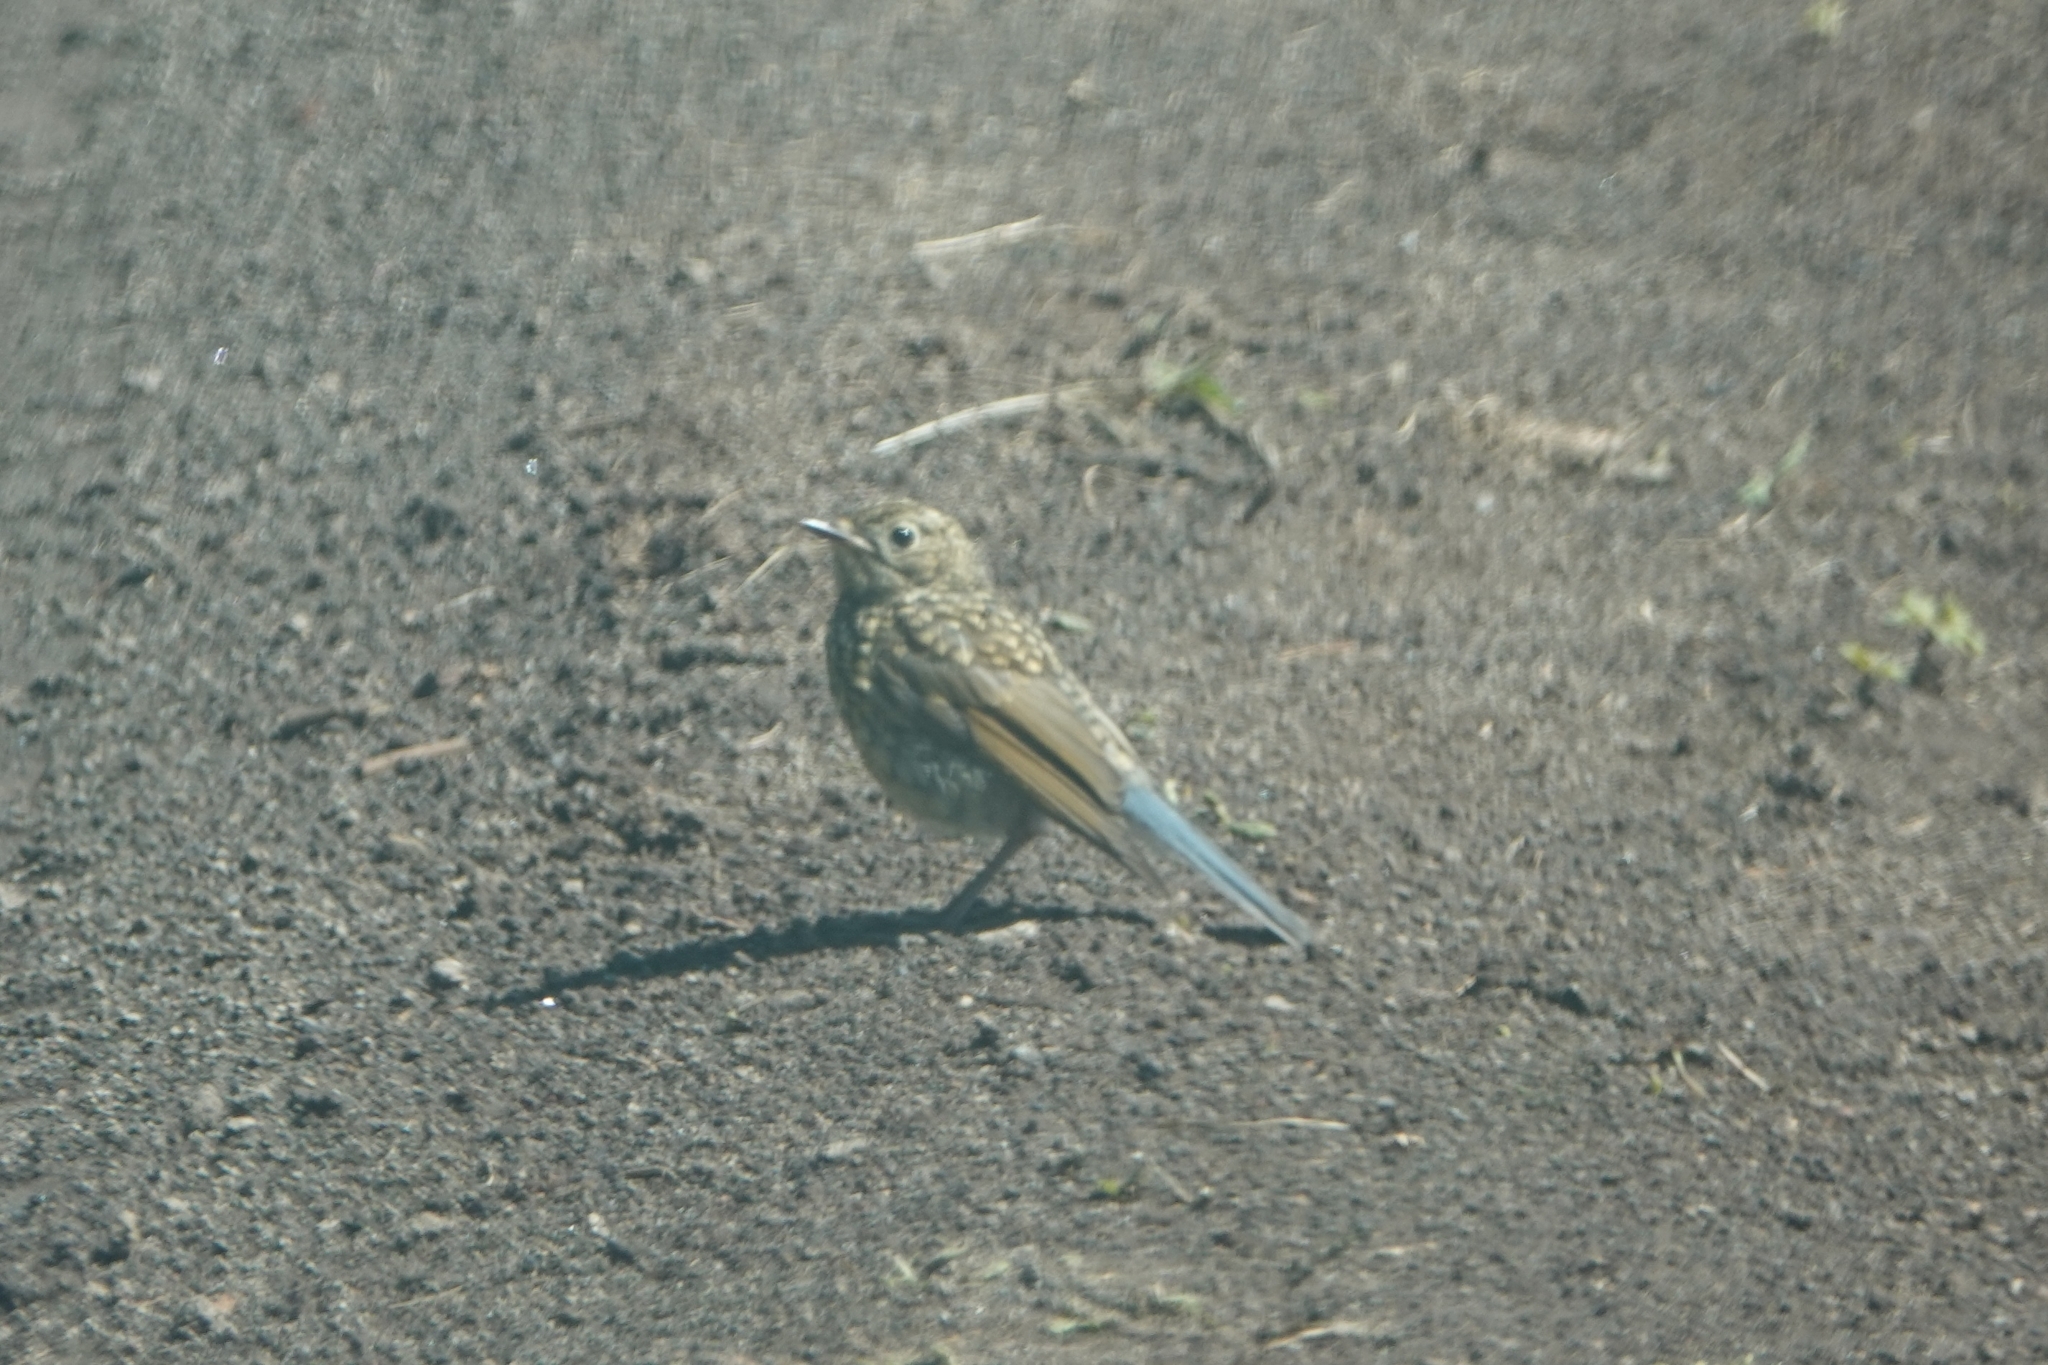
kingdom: Animalia
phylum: Chordata
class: Aves
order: Passeriformes
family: Muscicapidae
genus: Tarsiger
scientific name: Tarsiger cyanurus
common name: Red-flanked bluetail
